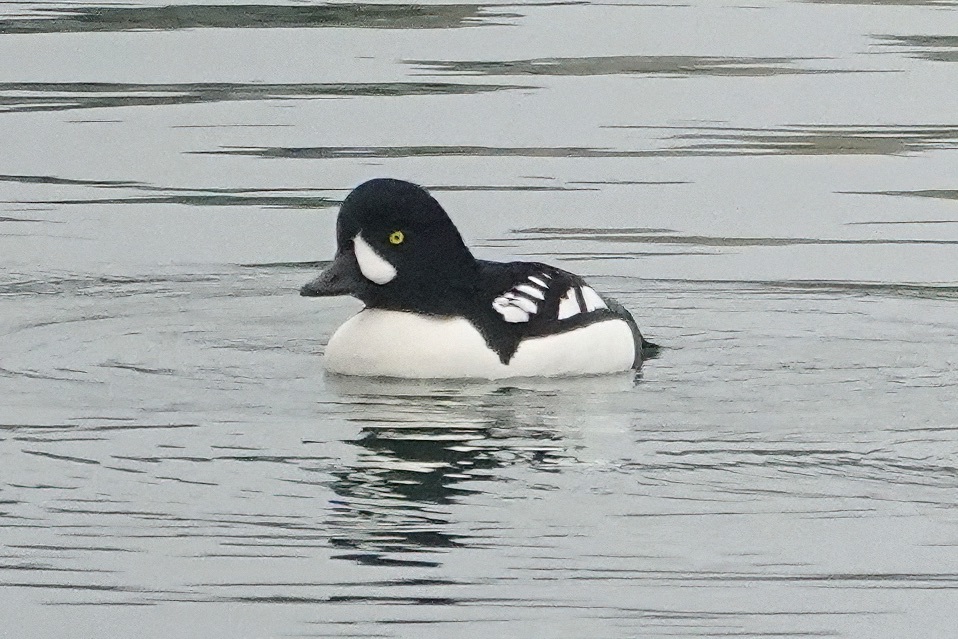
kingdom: Animalia
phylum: Chordata
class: Aves
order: Anseriformes
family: Anatidae
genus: Bucephala
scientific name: Bucephala islandica
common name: Barrow's goldeneye
